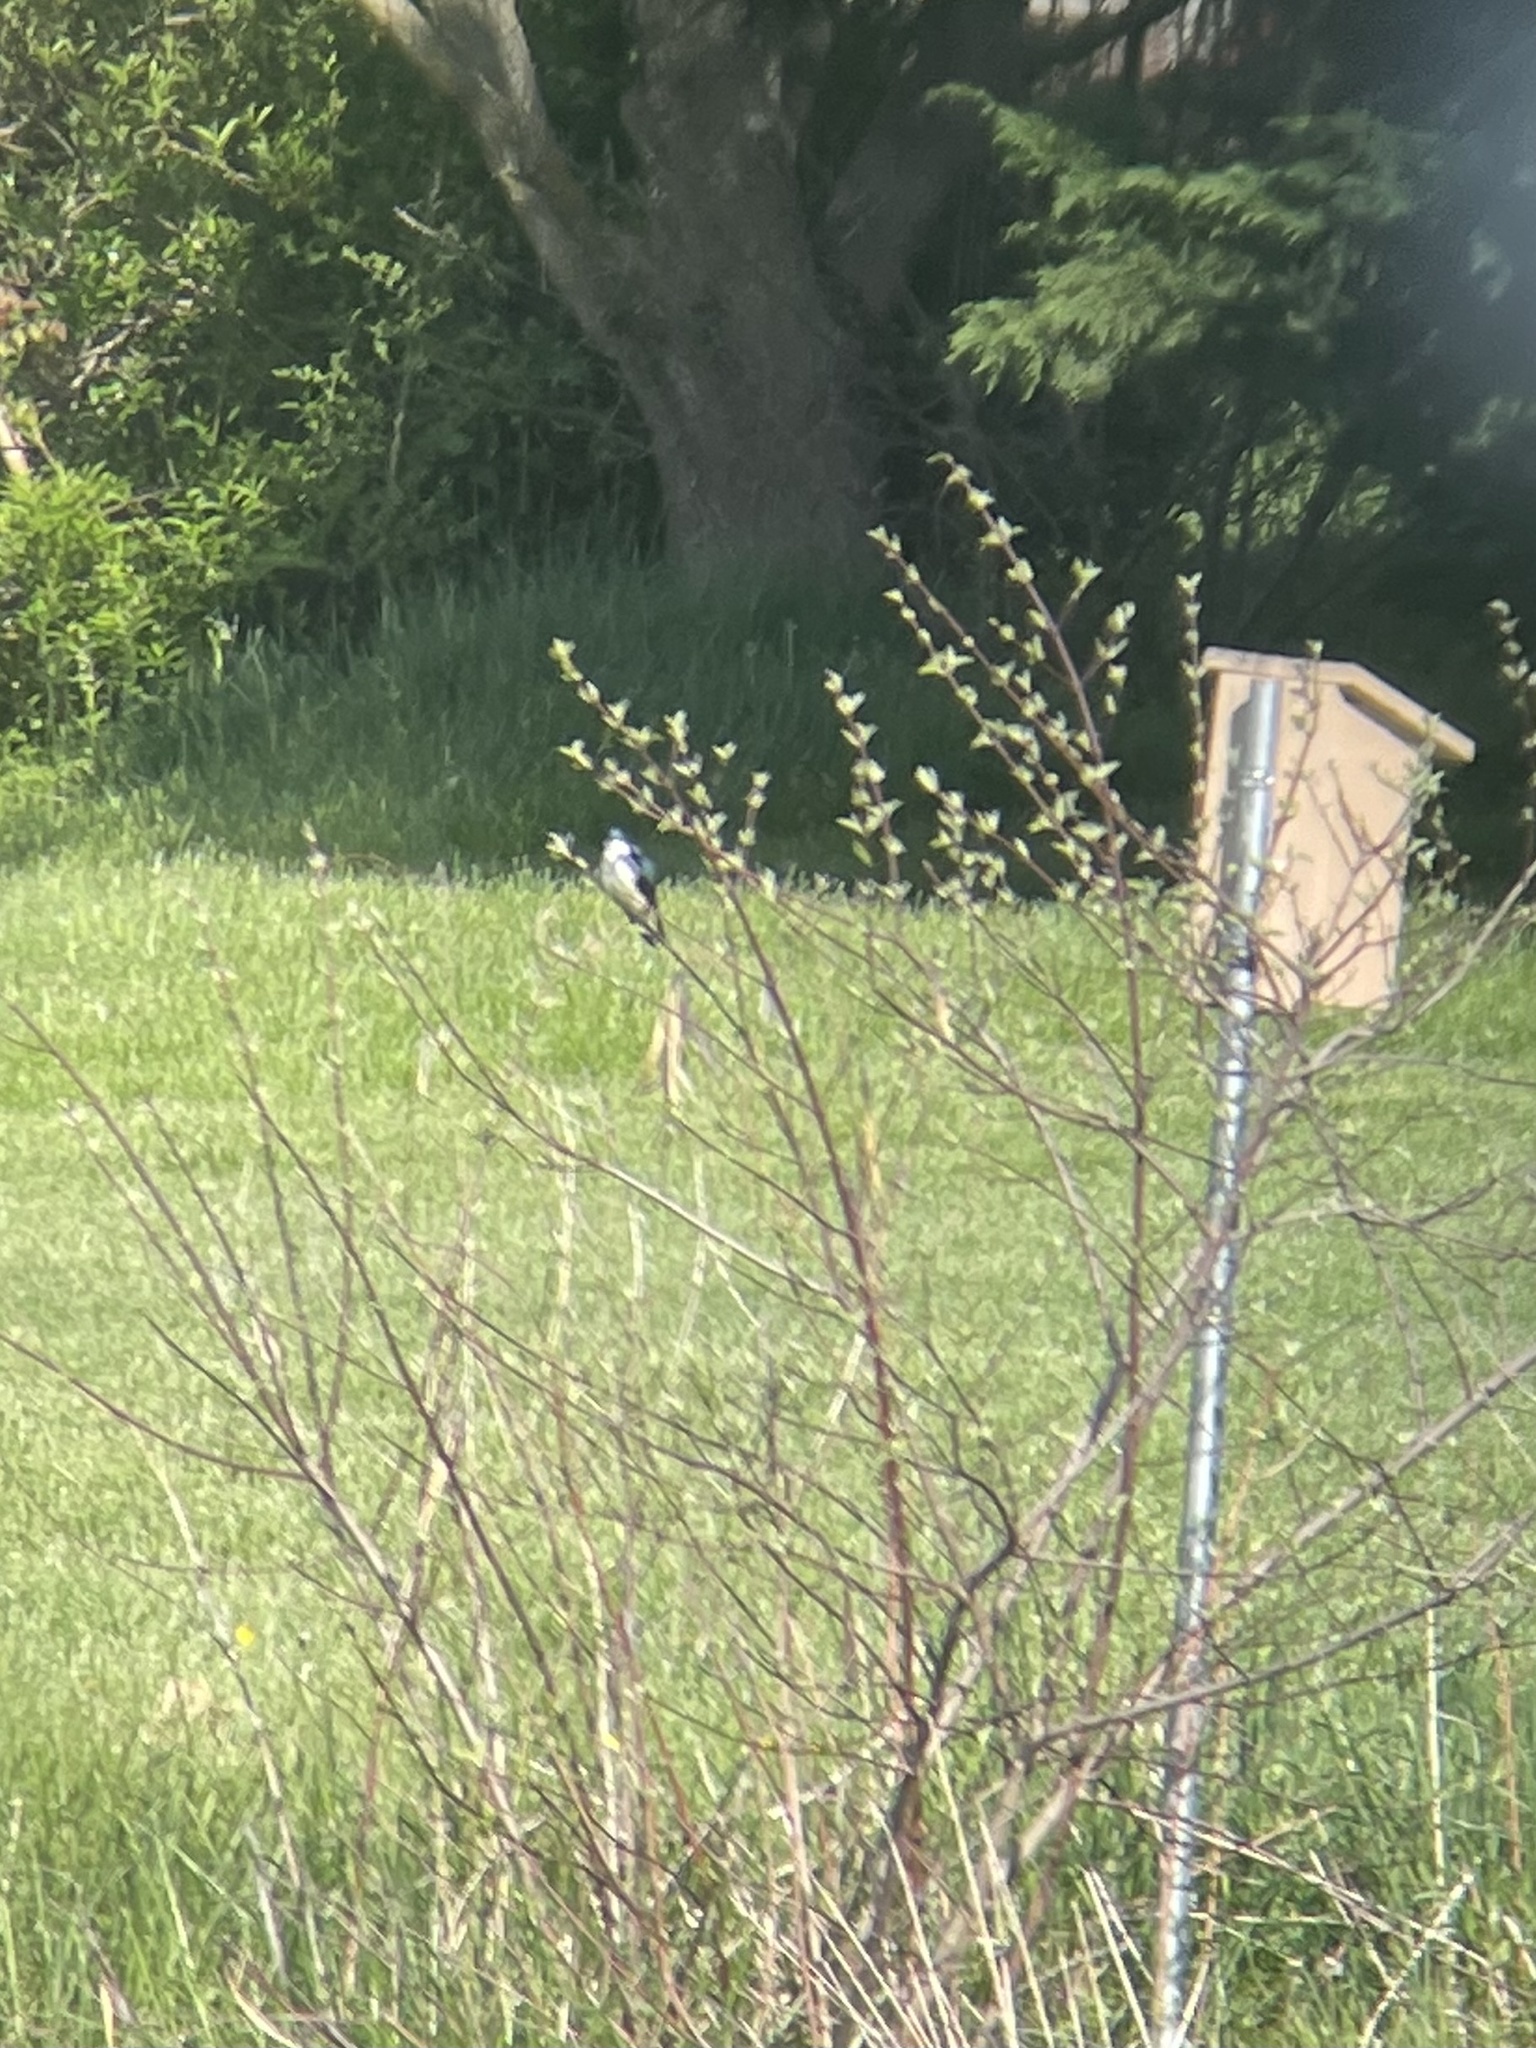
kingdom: Animalia
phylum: Chordata
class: Aves
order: Passeriformes
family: Hirundinidae
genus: Tachycineta
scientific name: Tachycineta bicolor
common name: Tree swallow
